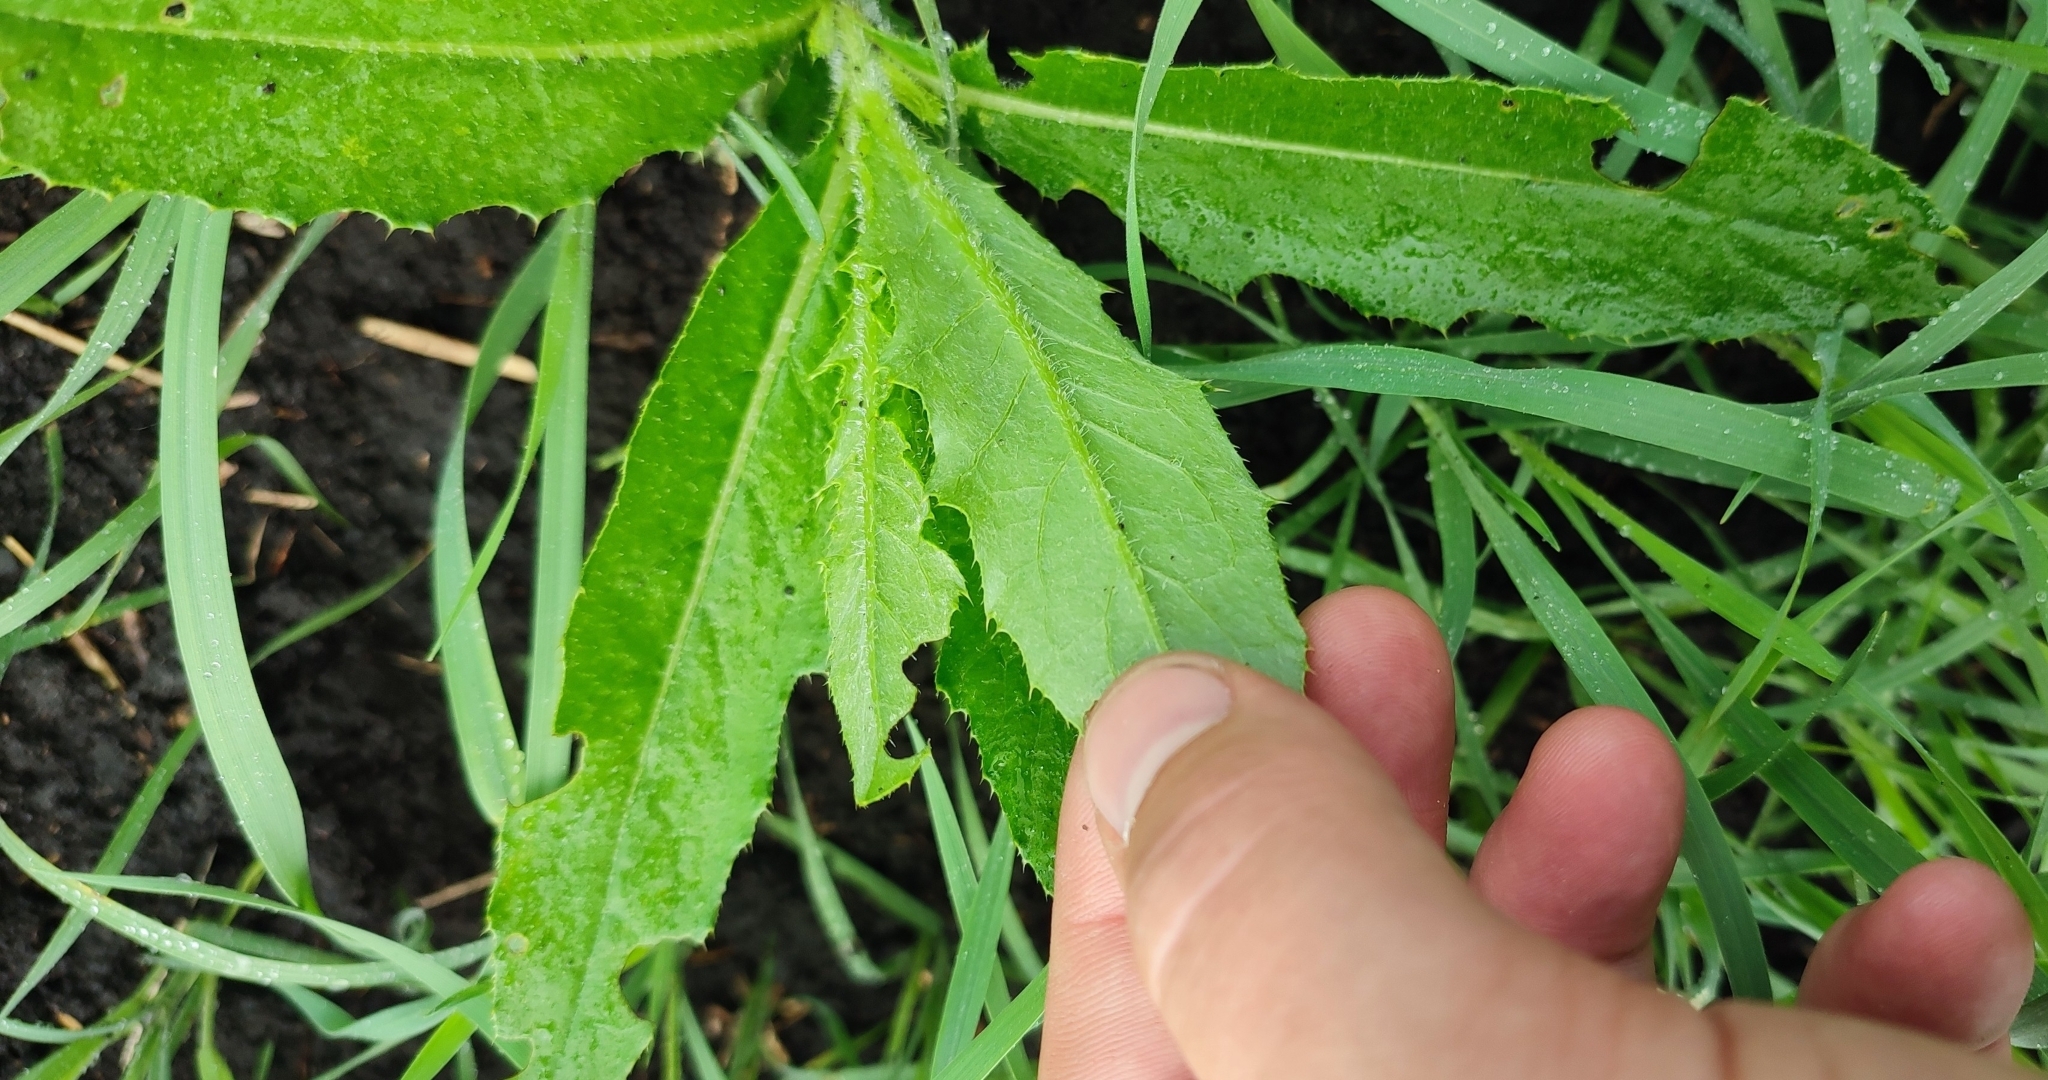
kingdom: Plantae
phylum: Tracheophyta
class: Magnoliopsida
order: Asterales
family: Asteraceae
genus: Cirsium
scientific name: Cirsium arvense
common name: Creeping thistle
